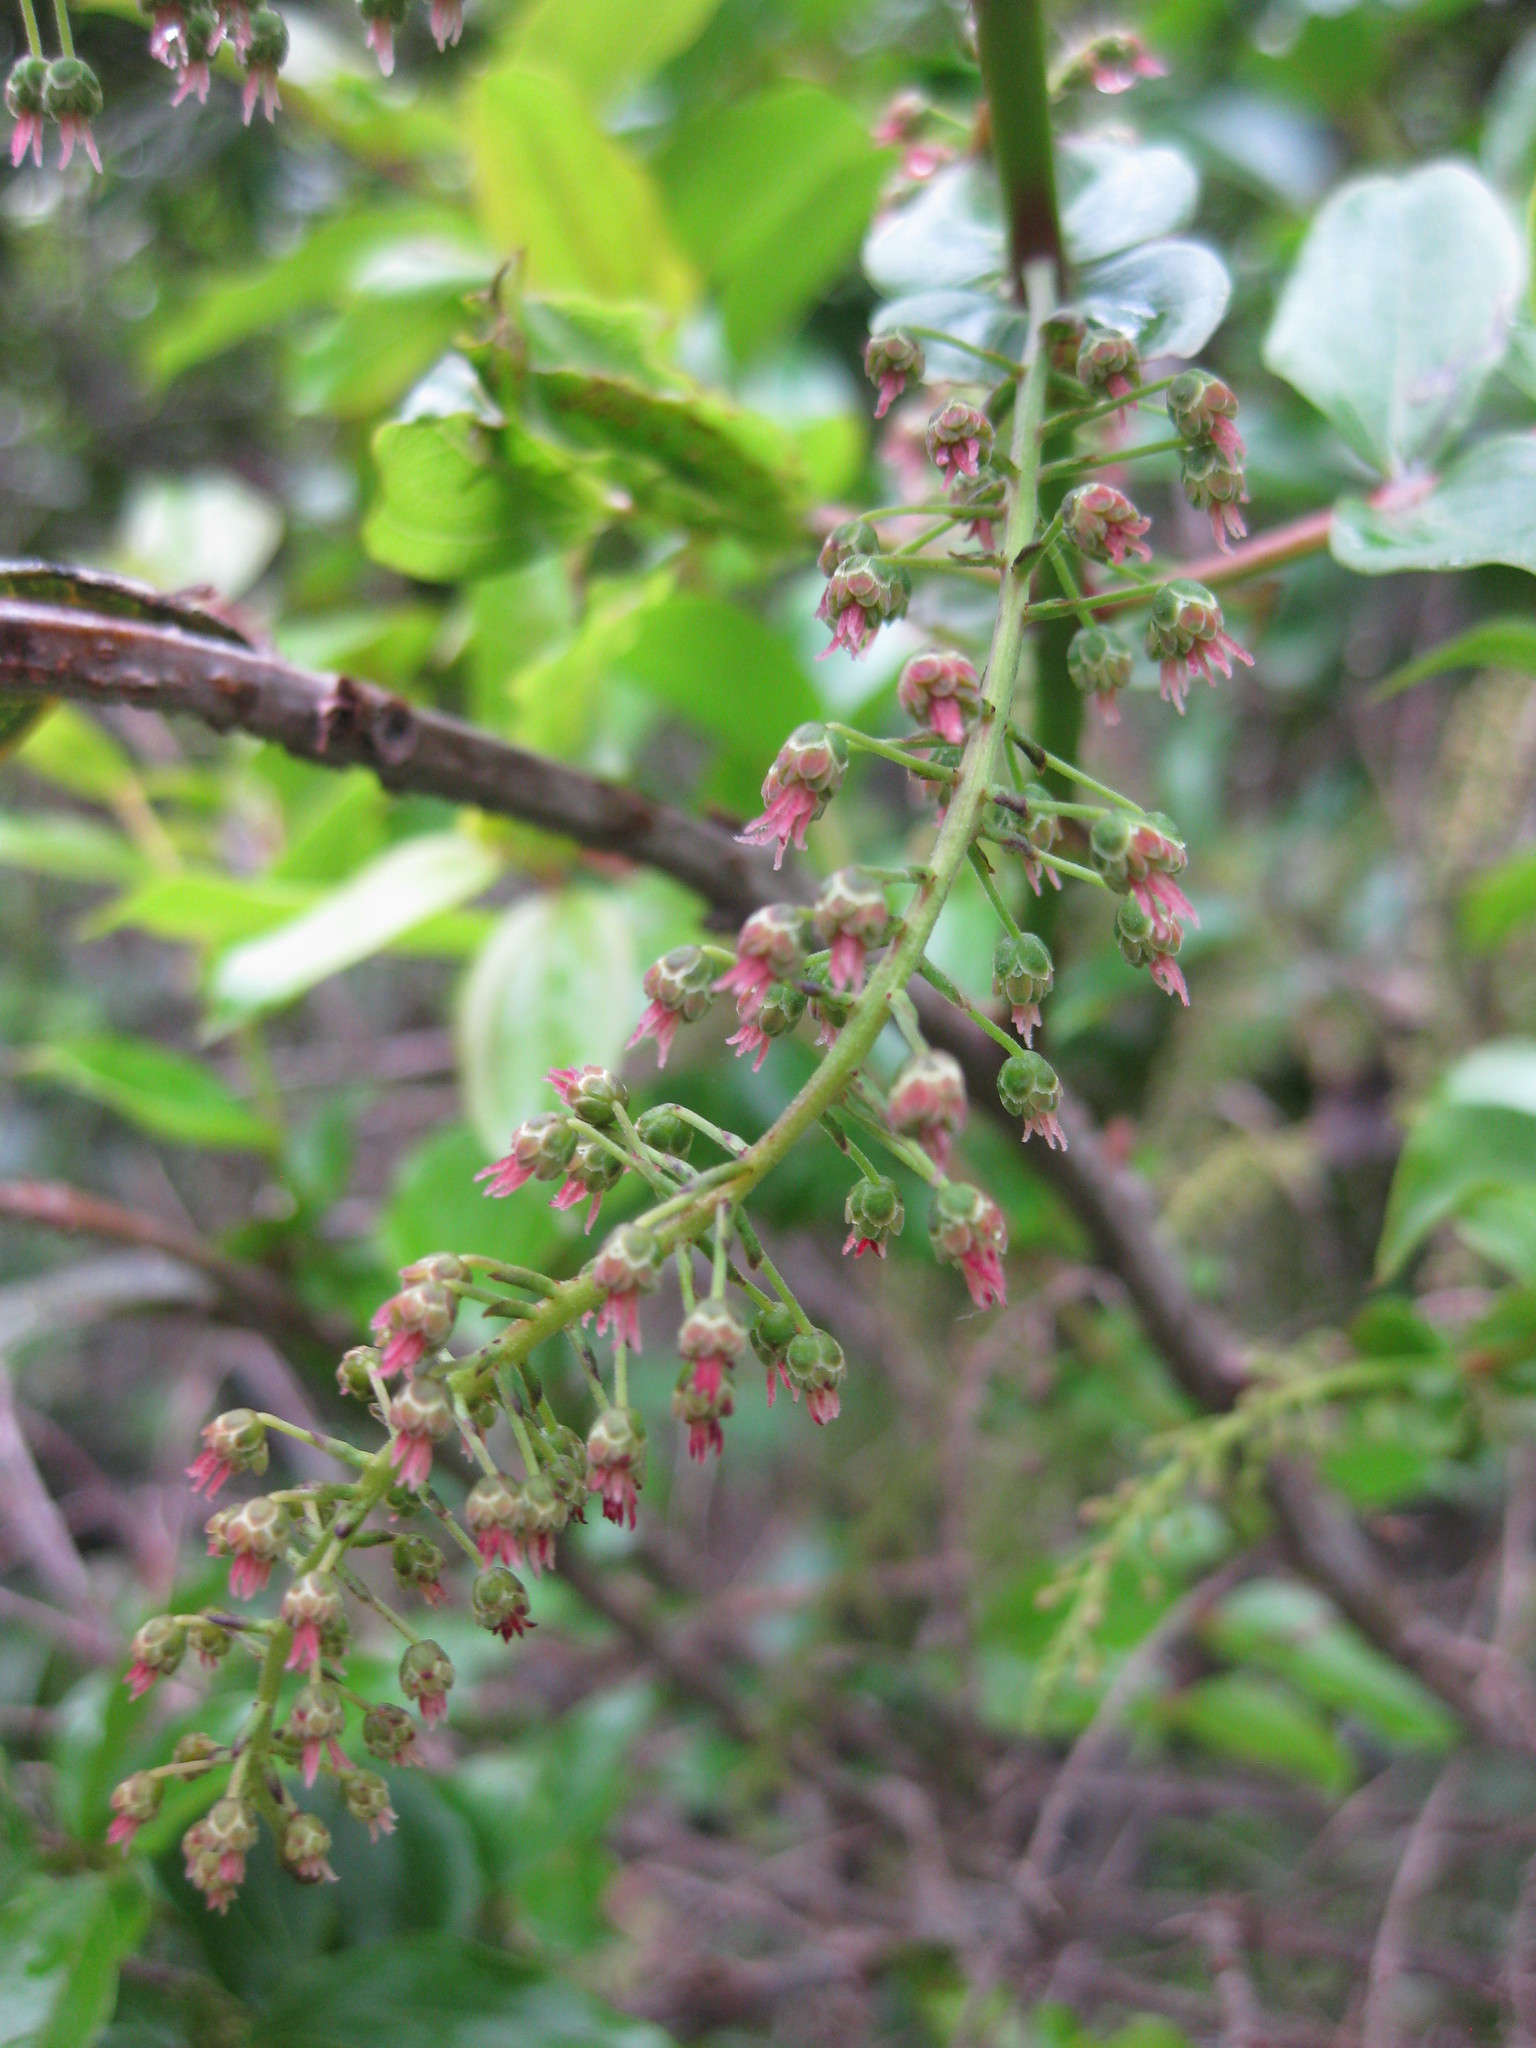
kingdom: Plantae
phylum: Tracheophyta
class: Magnoliopsida
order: Cucurbitales
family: Coriariaceae
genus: Coriaria
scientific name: Coriaria arborea
